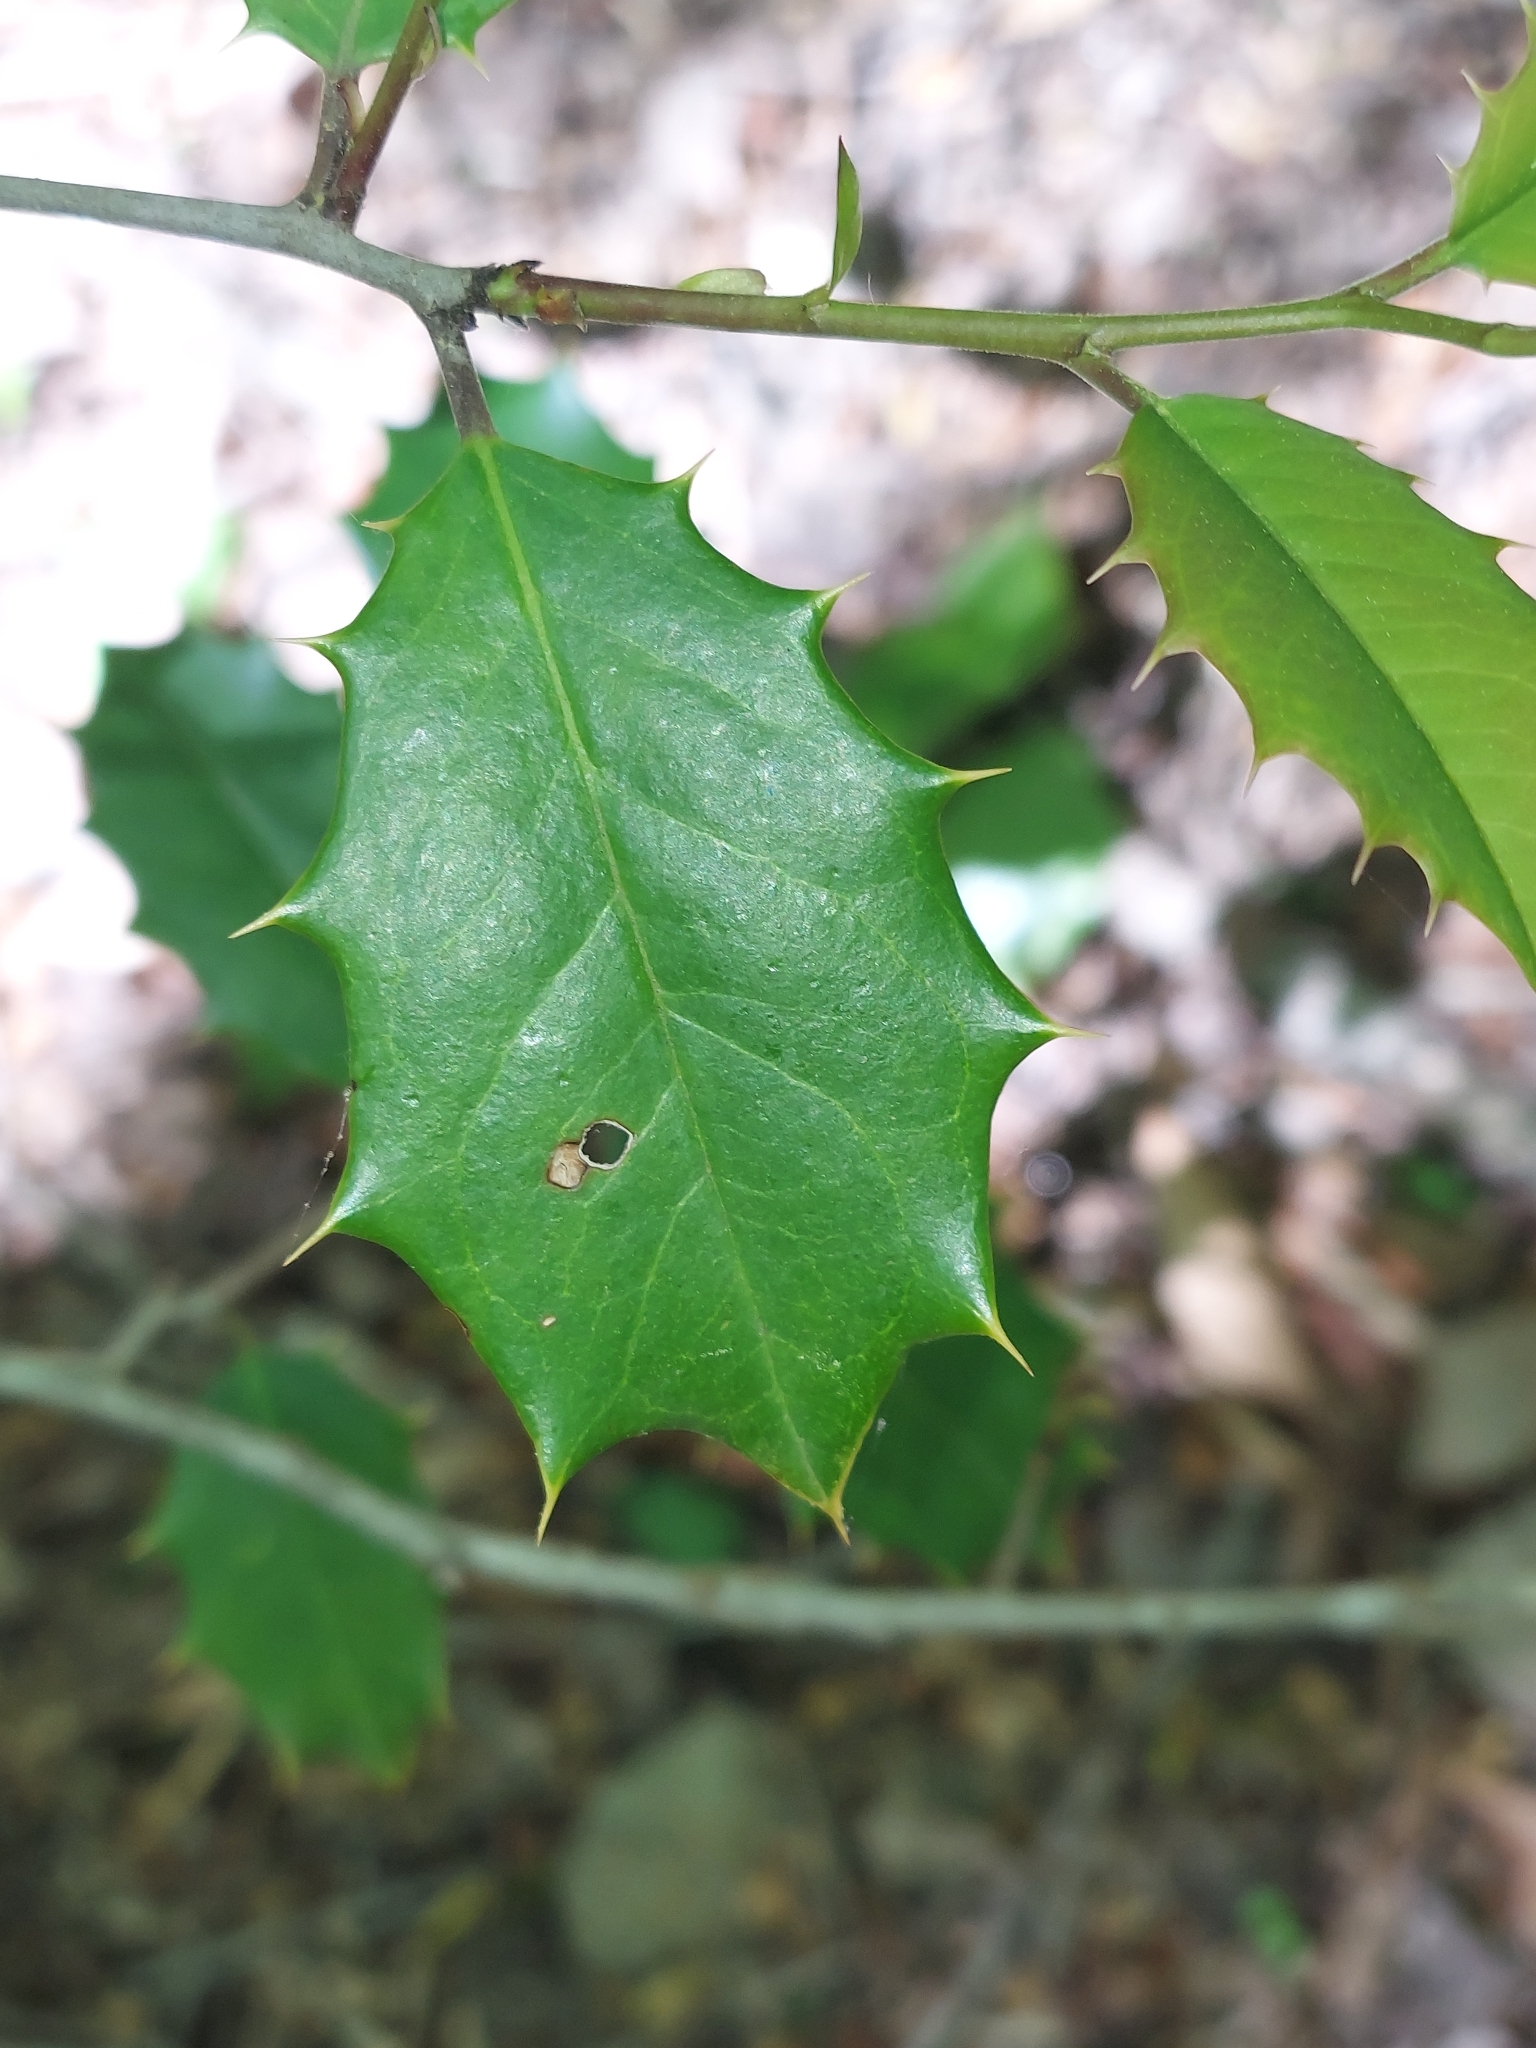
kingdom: Plantae
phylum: Tracheophyta
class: Magnoliopsida
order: Aquifoliales
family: Aquifoliaceae
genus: Ilex
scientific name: Ilex opaca
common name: American holly
